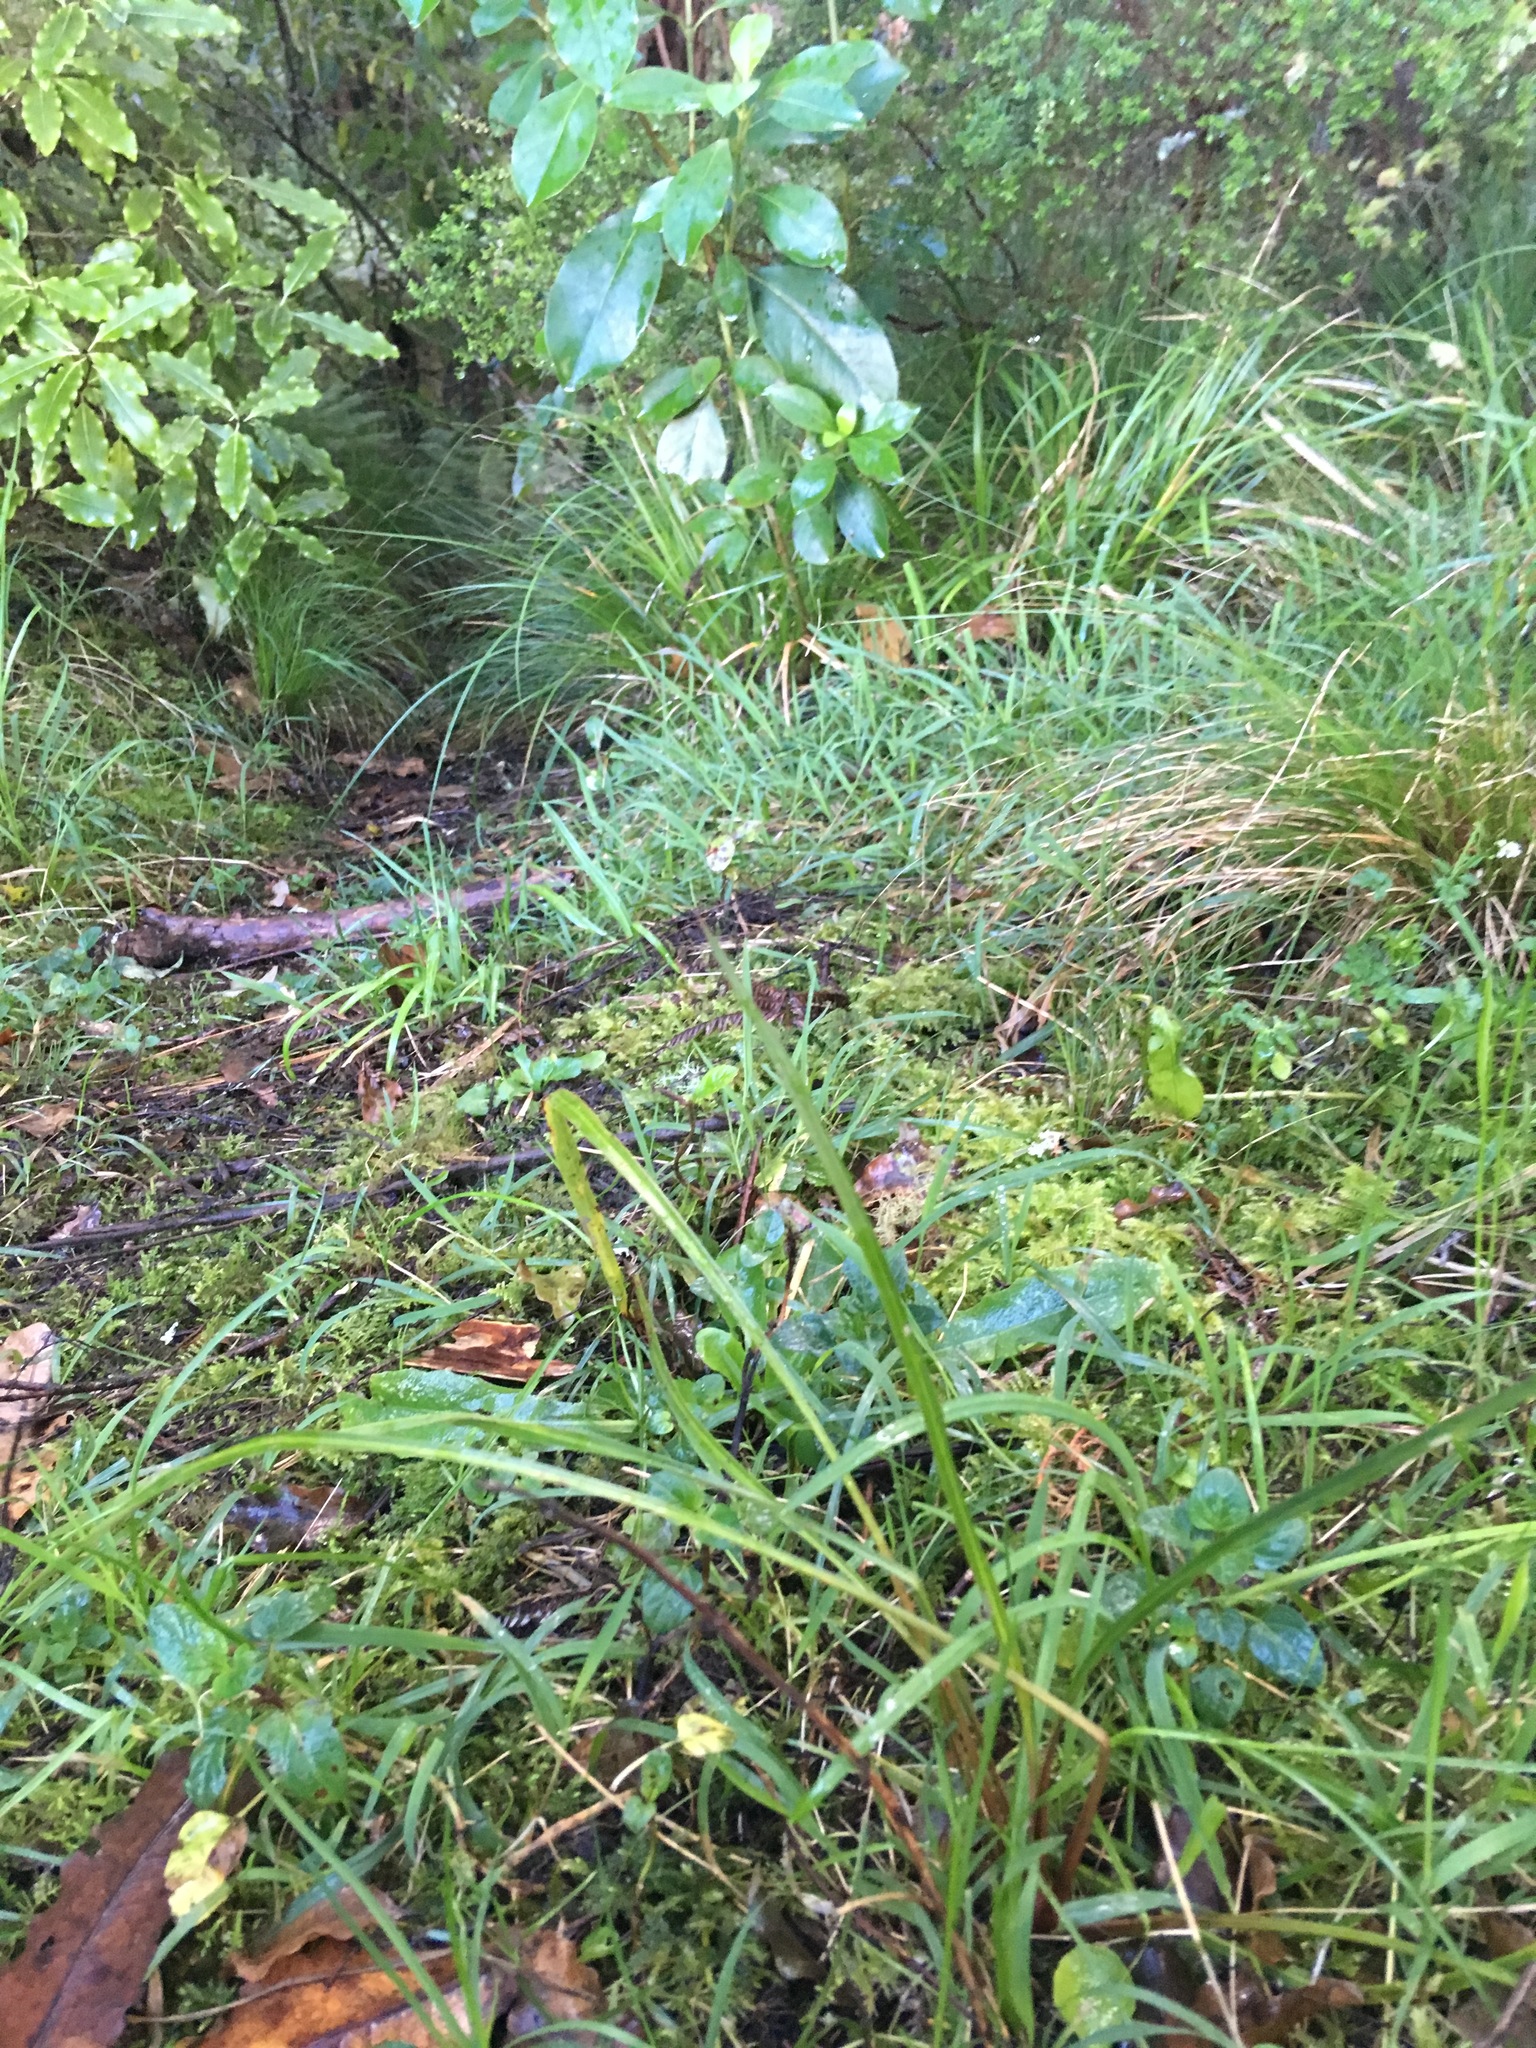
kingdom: Plantae
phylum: Tracheophyta
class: Magnoliopsida
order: Apiales
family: Pittosporaceae
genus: Pittosporum
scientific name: Pittosporum eugenioides
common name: Lemonwood
